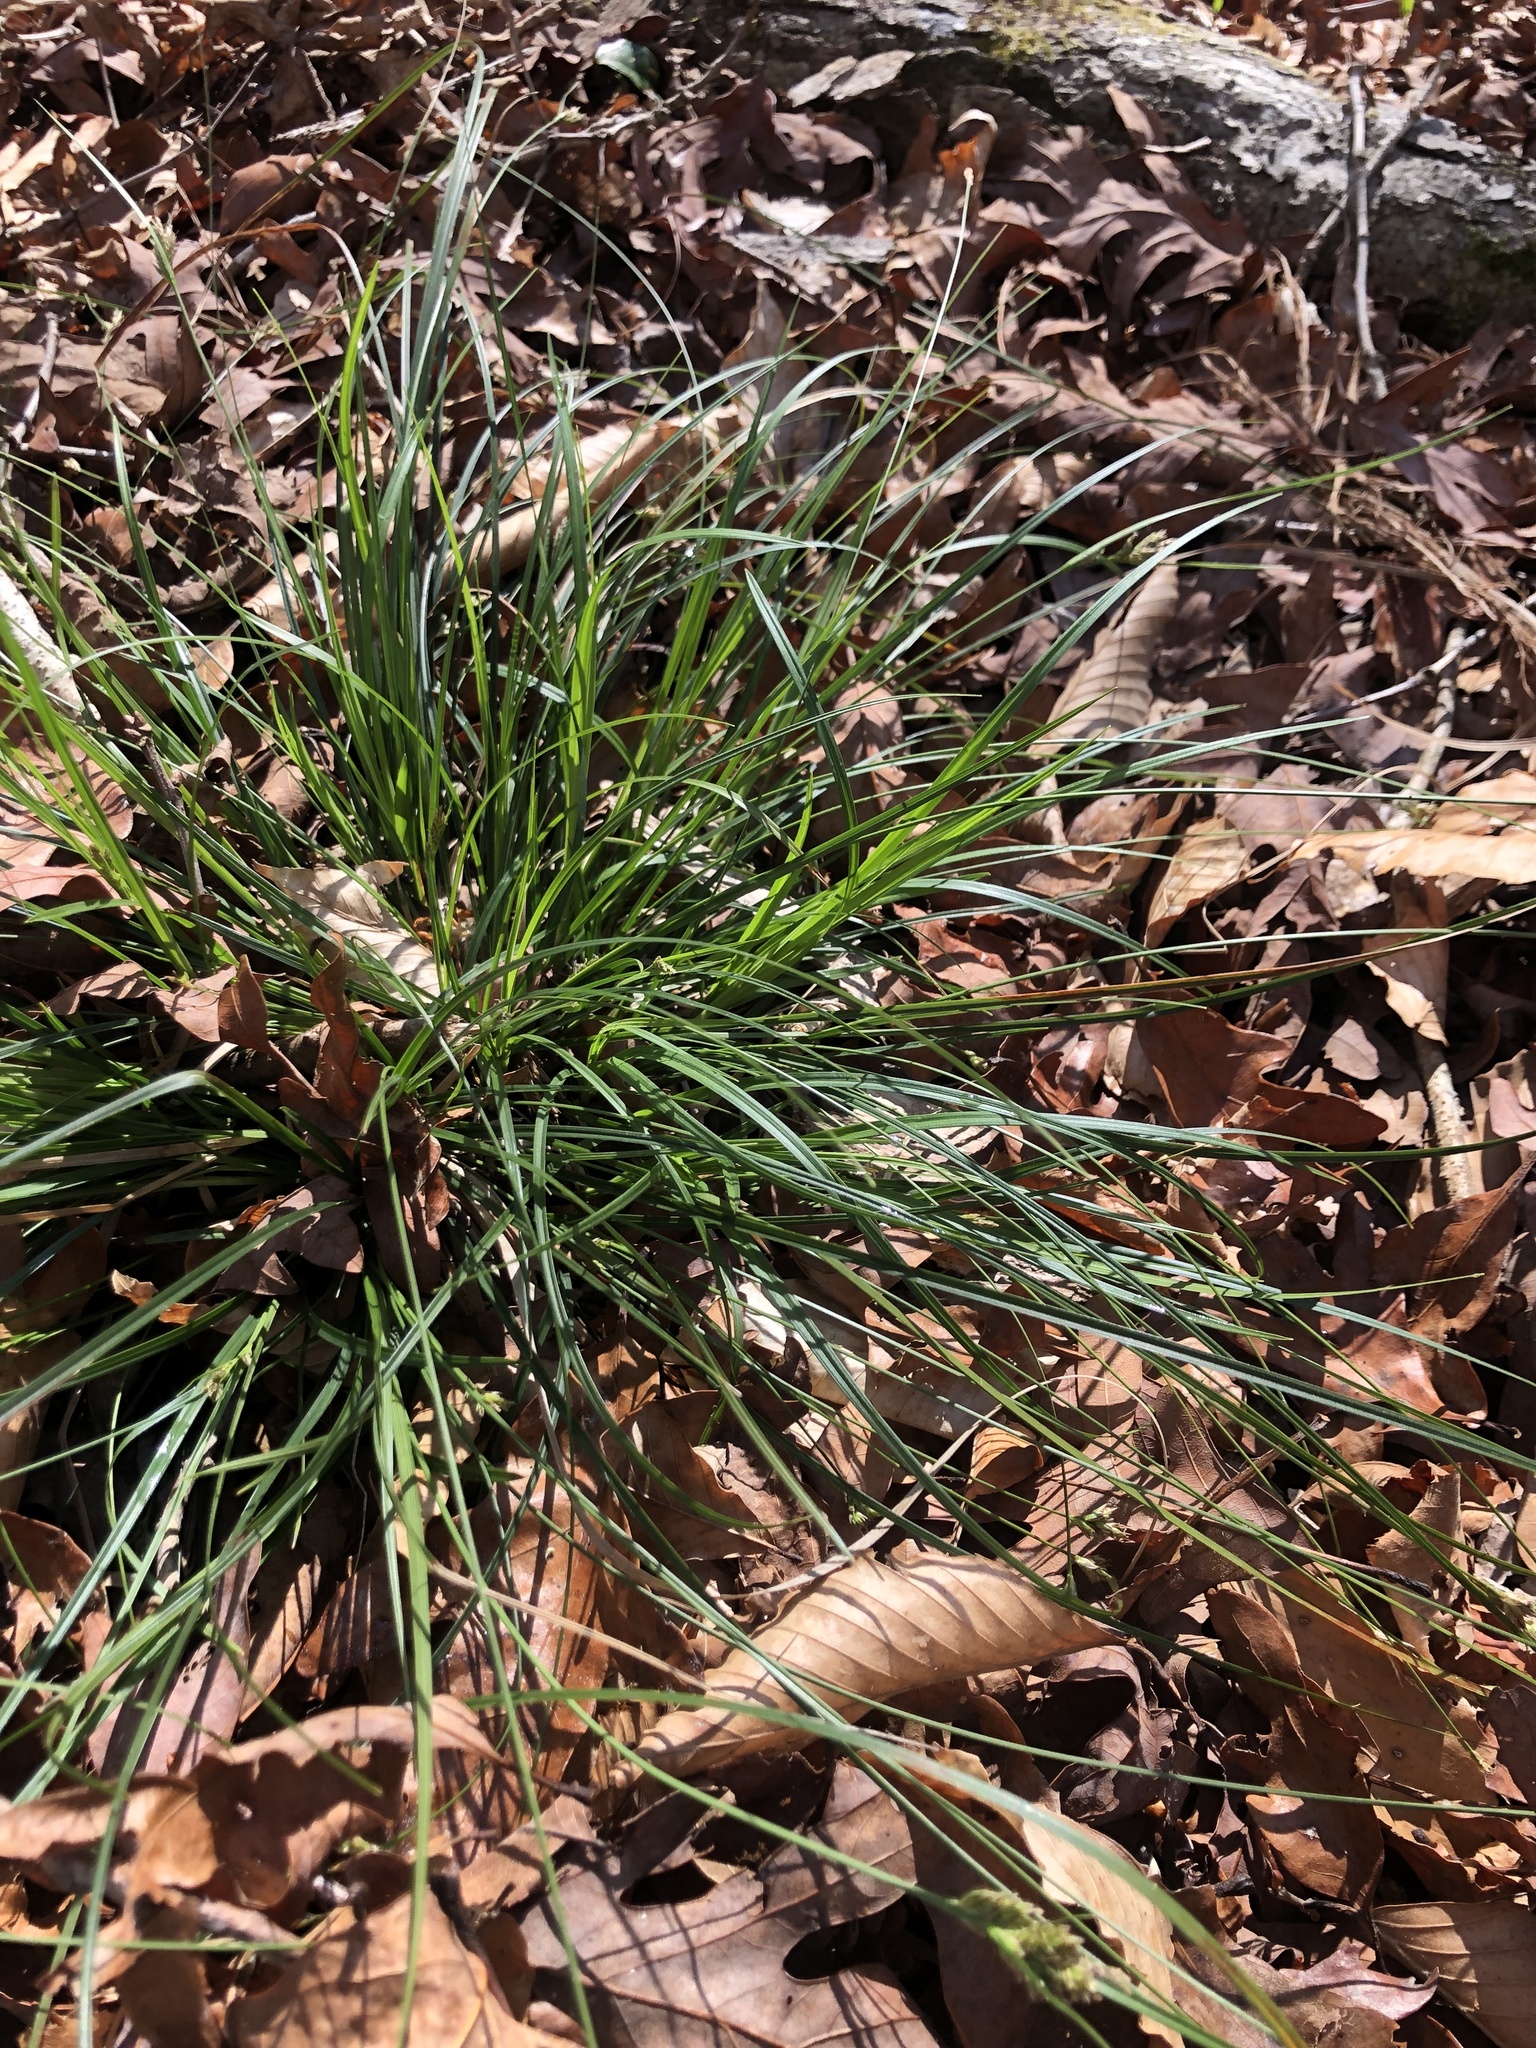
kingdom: Plantae
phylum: Tracheophyta
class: Liliopsida
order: Poales
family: Cyperaceae
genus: Carex
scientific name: Carex nigromarginata
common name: Black-edged sedge
